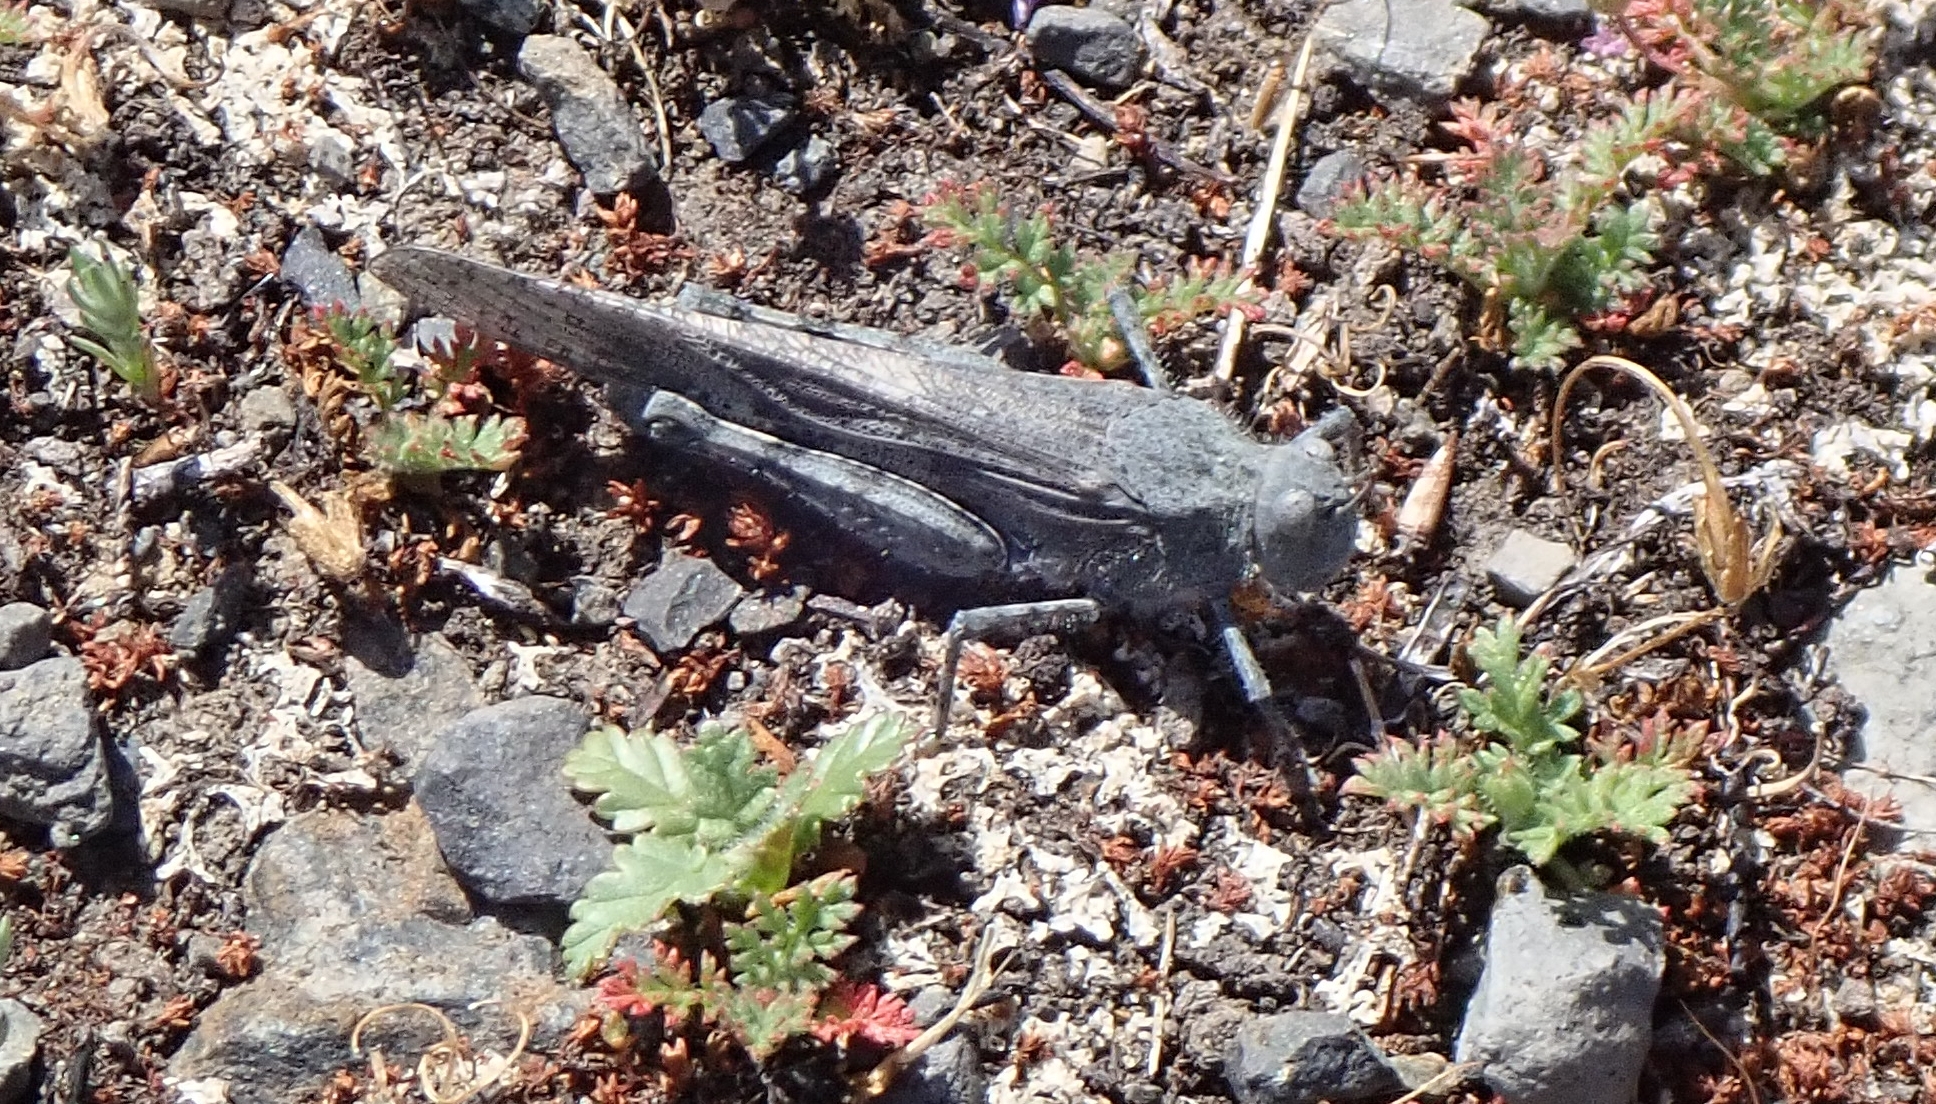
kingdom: Animalia
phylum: Arthropoda
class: Insecta
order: Orthoptera
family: Acrididae
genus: Trimerotropis
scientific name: Trimerotropis pallidipennis
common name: Pallid-winged grasshopper
